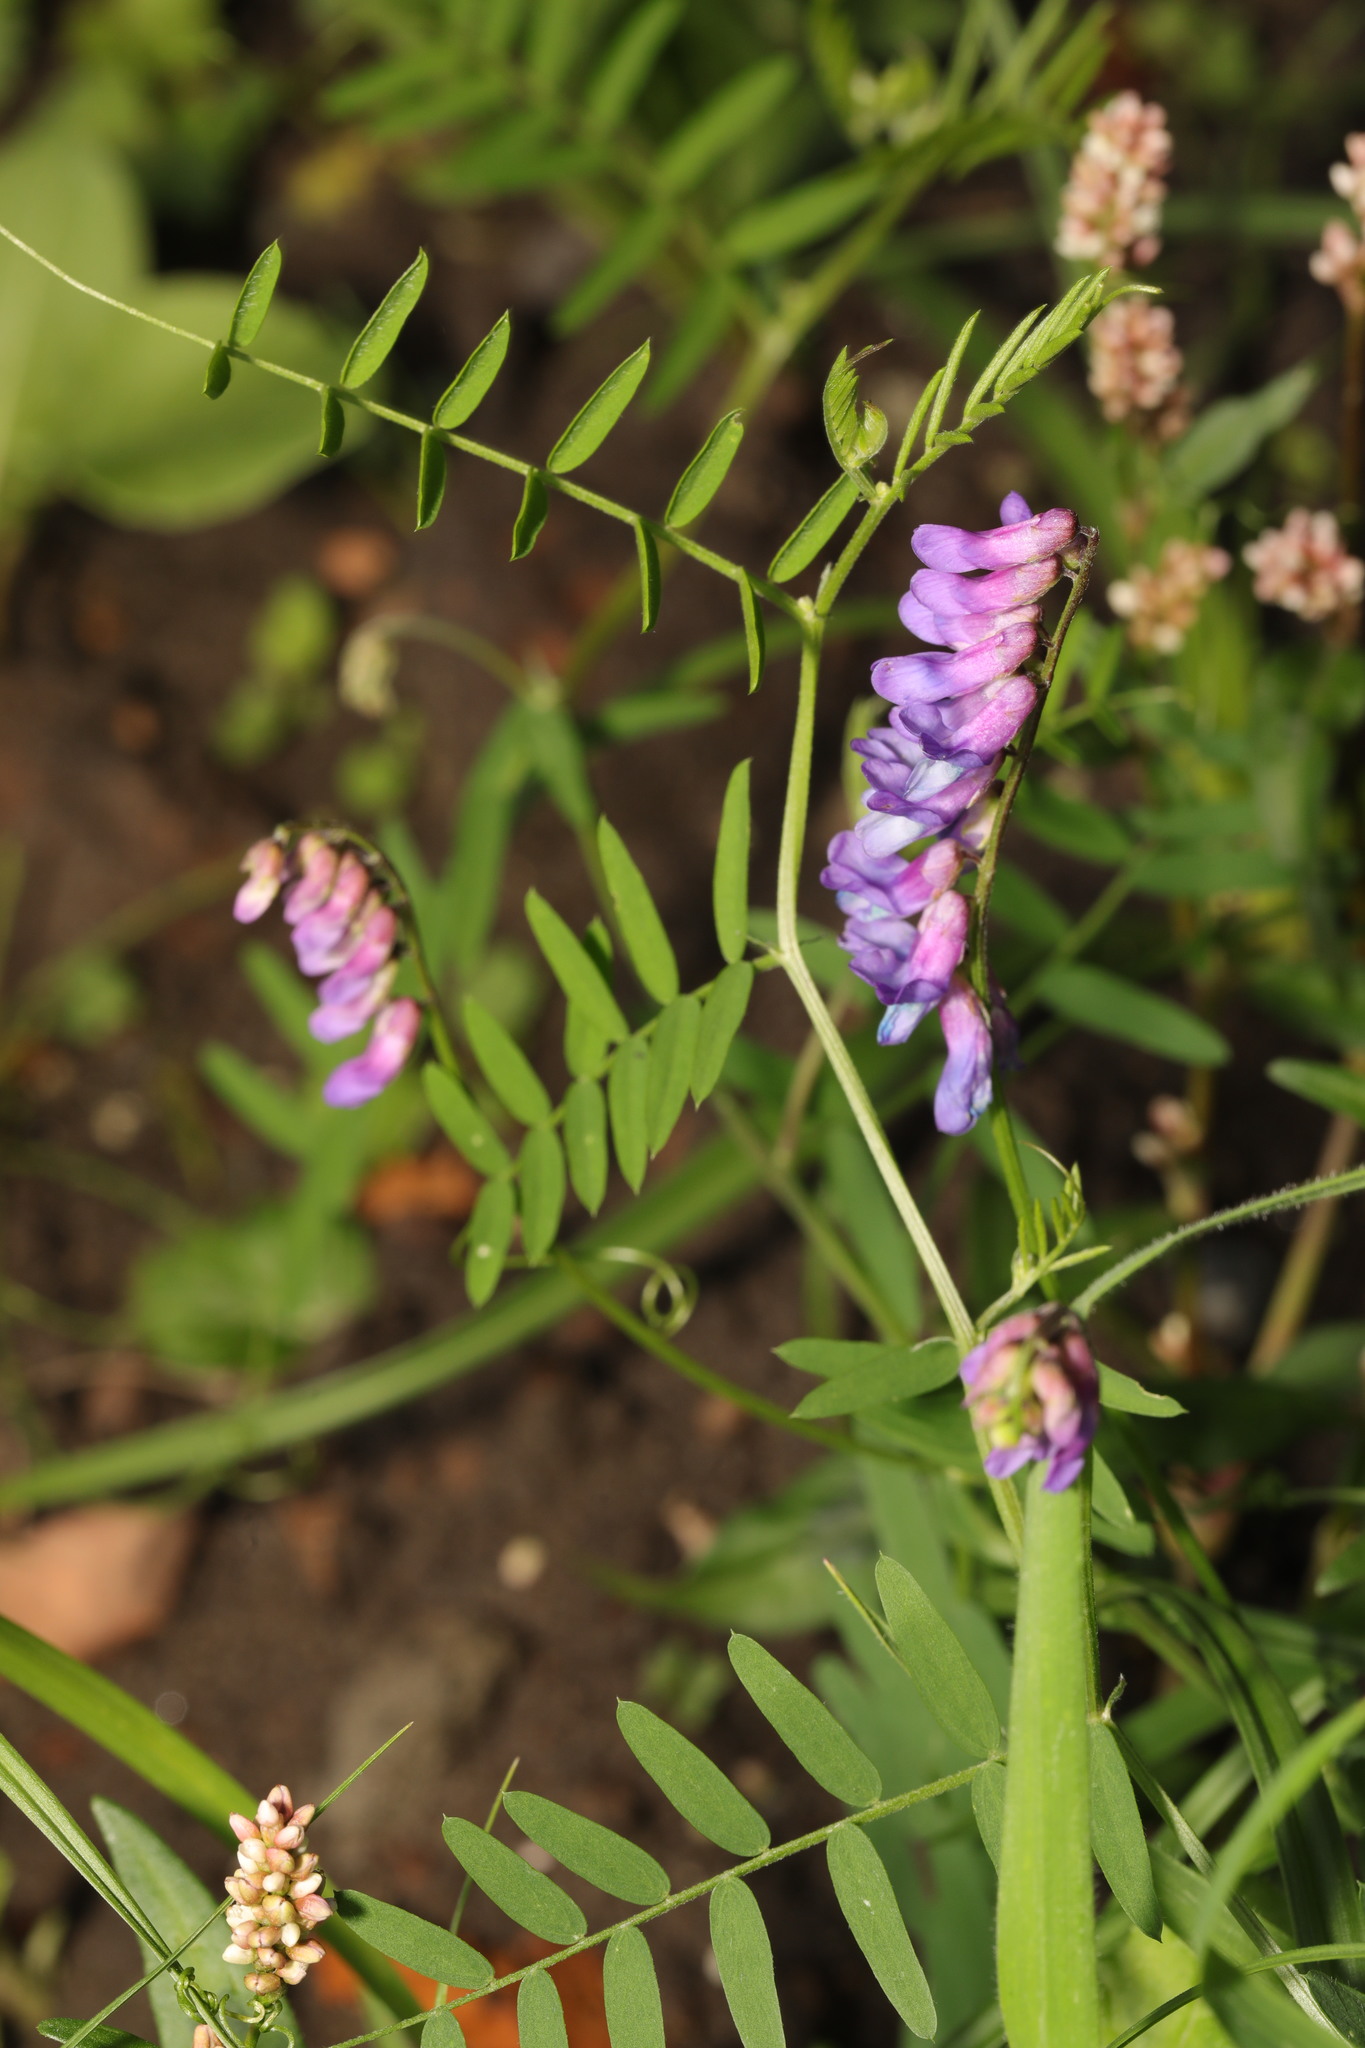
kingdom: Plantae
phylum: Tracheophyta
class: Magnoliopsida
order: Fabales
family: Fabaceae
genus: Vicia
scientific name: Vicia cracca
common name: Bird vetch
